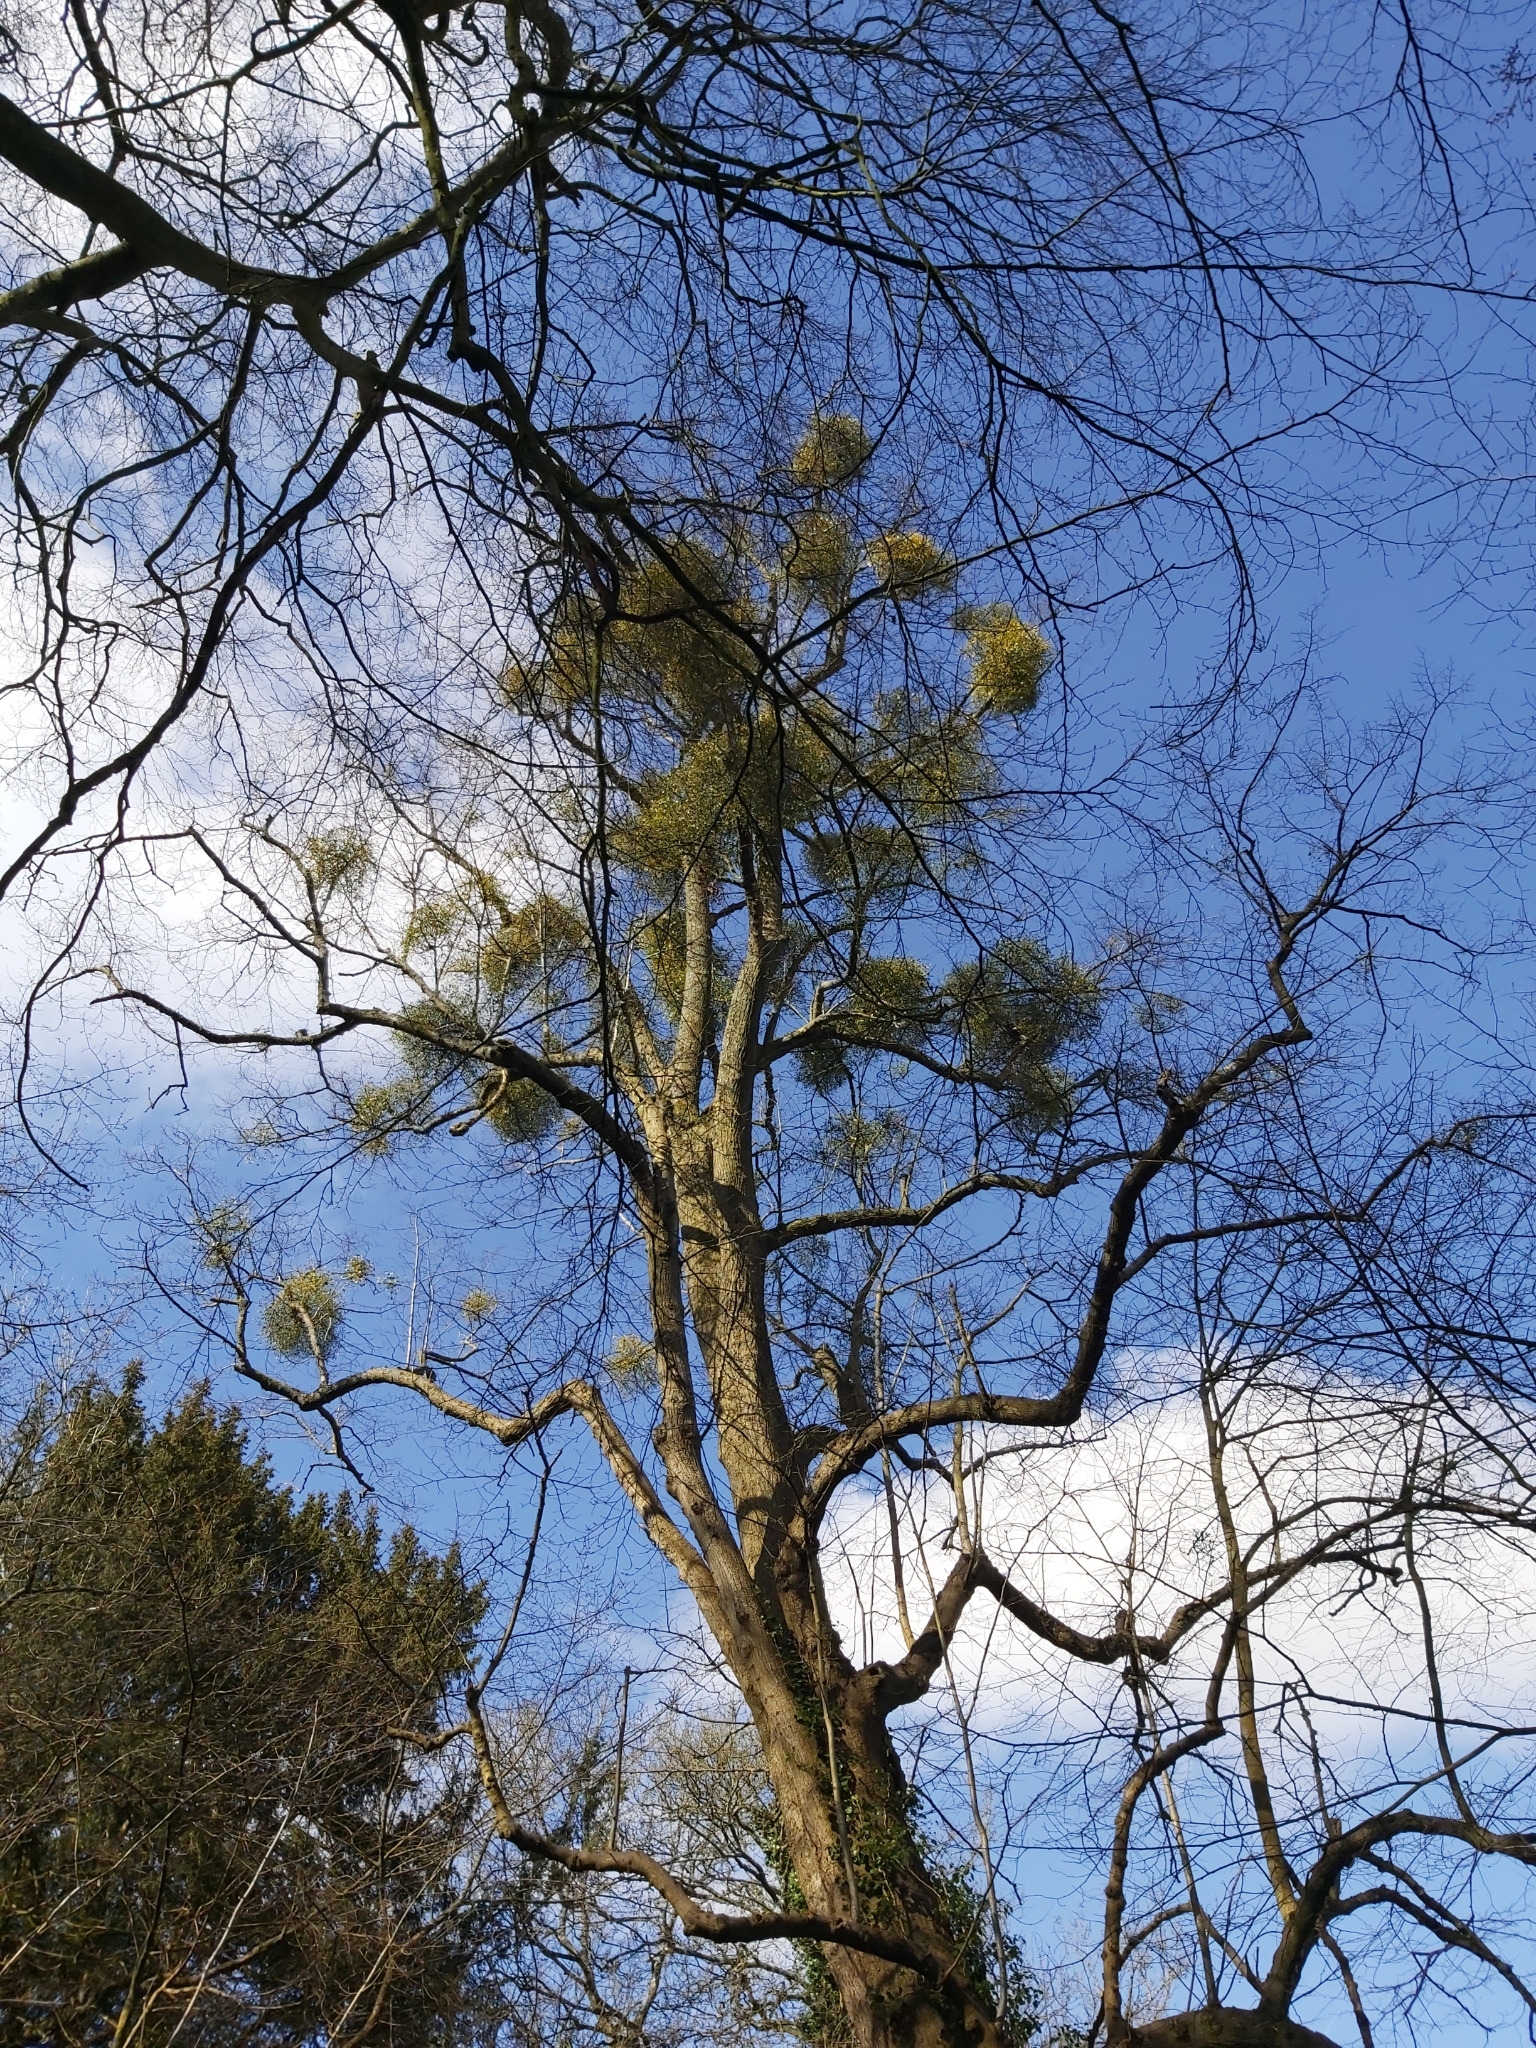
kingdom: Plantae
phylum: Tracheophyta
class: Magnoliopsida
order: Santalales
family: Viscaceae
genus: Viscum
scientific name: Viscum album
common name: Mistletoe
